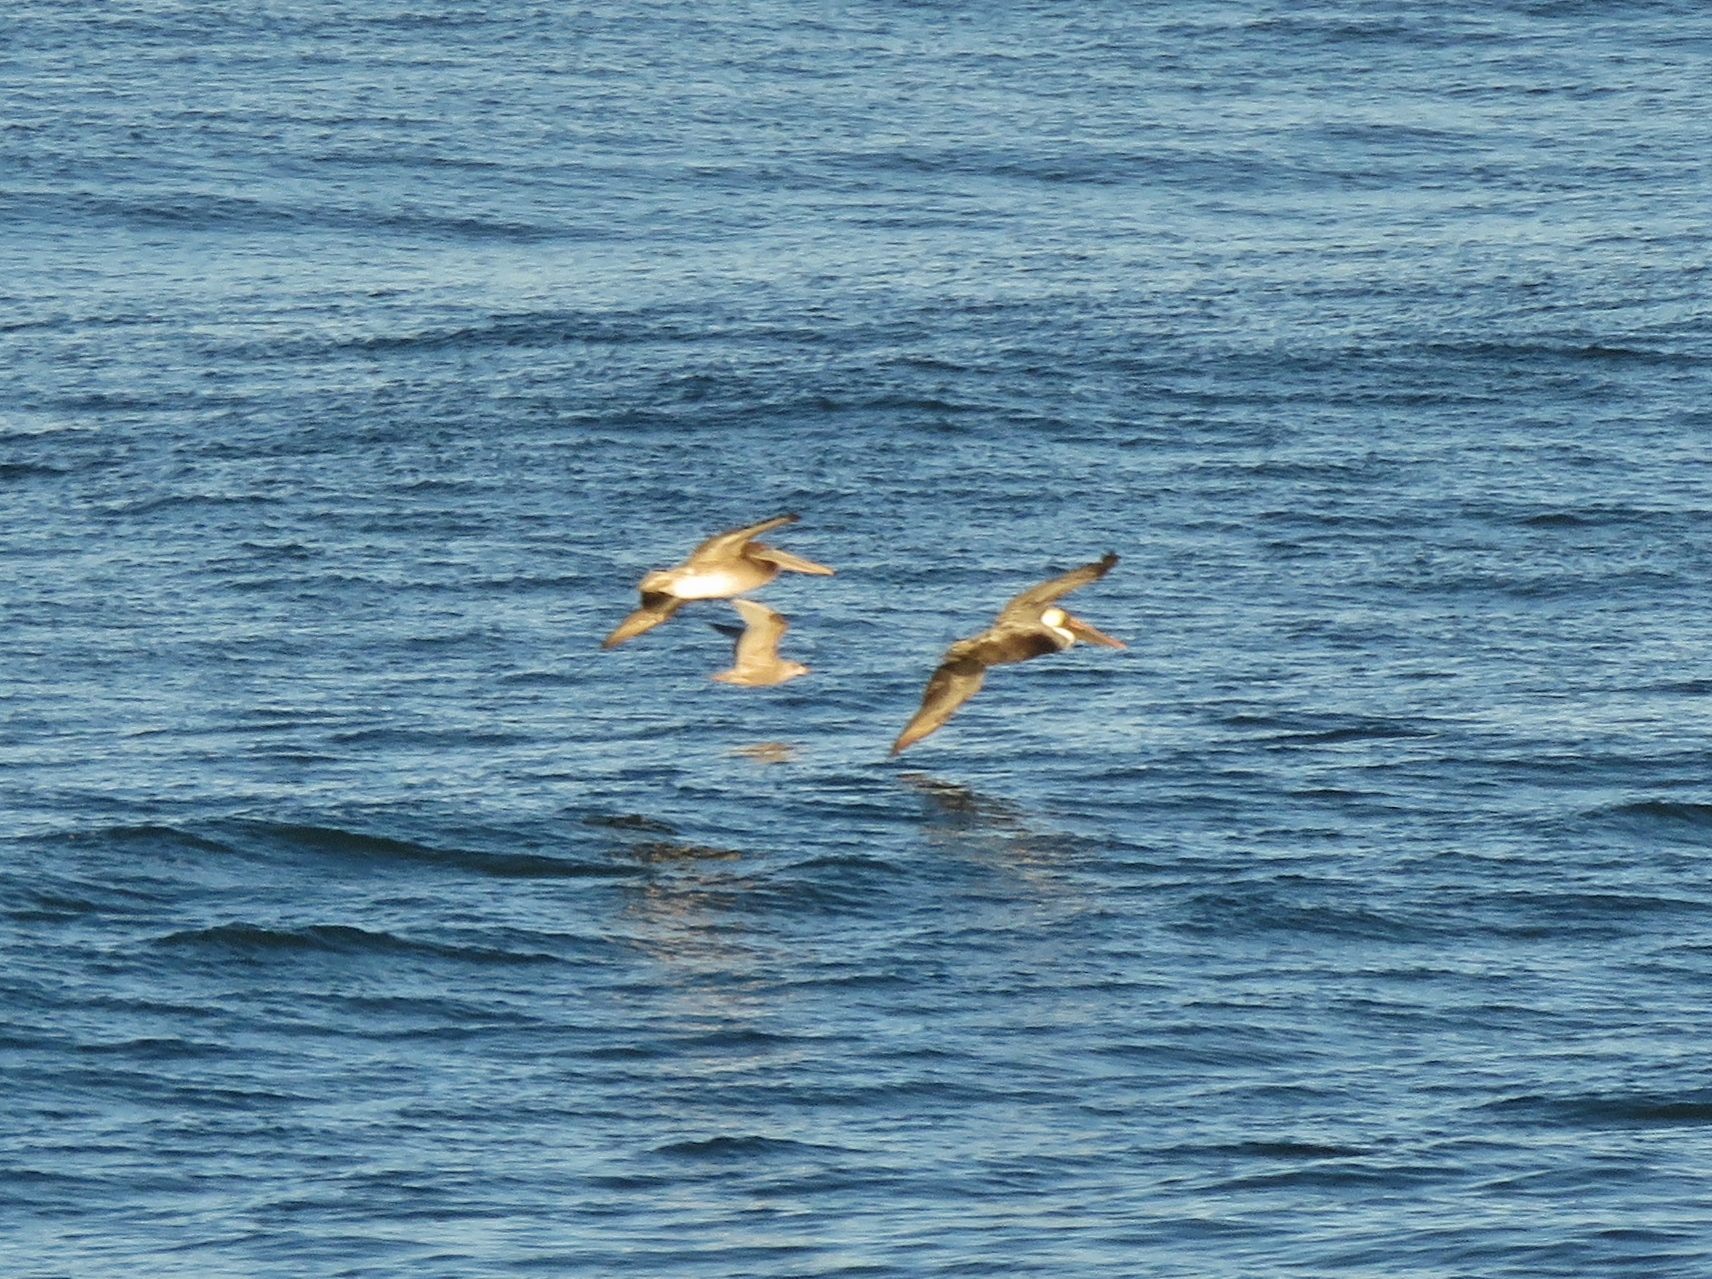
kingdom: Animalia
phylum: Chordata
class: Aves
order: Pelecaniformes
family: Pelecanidae
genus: Pelecanus
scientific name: Pelecanus occidentalis
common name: Brown pelican
